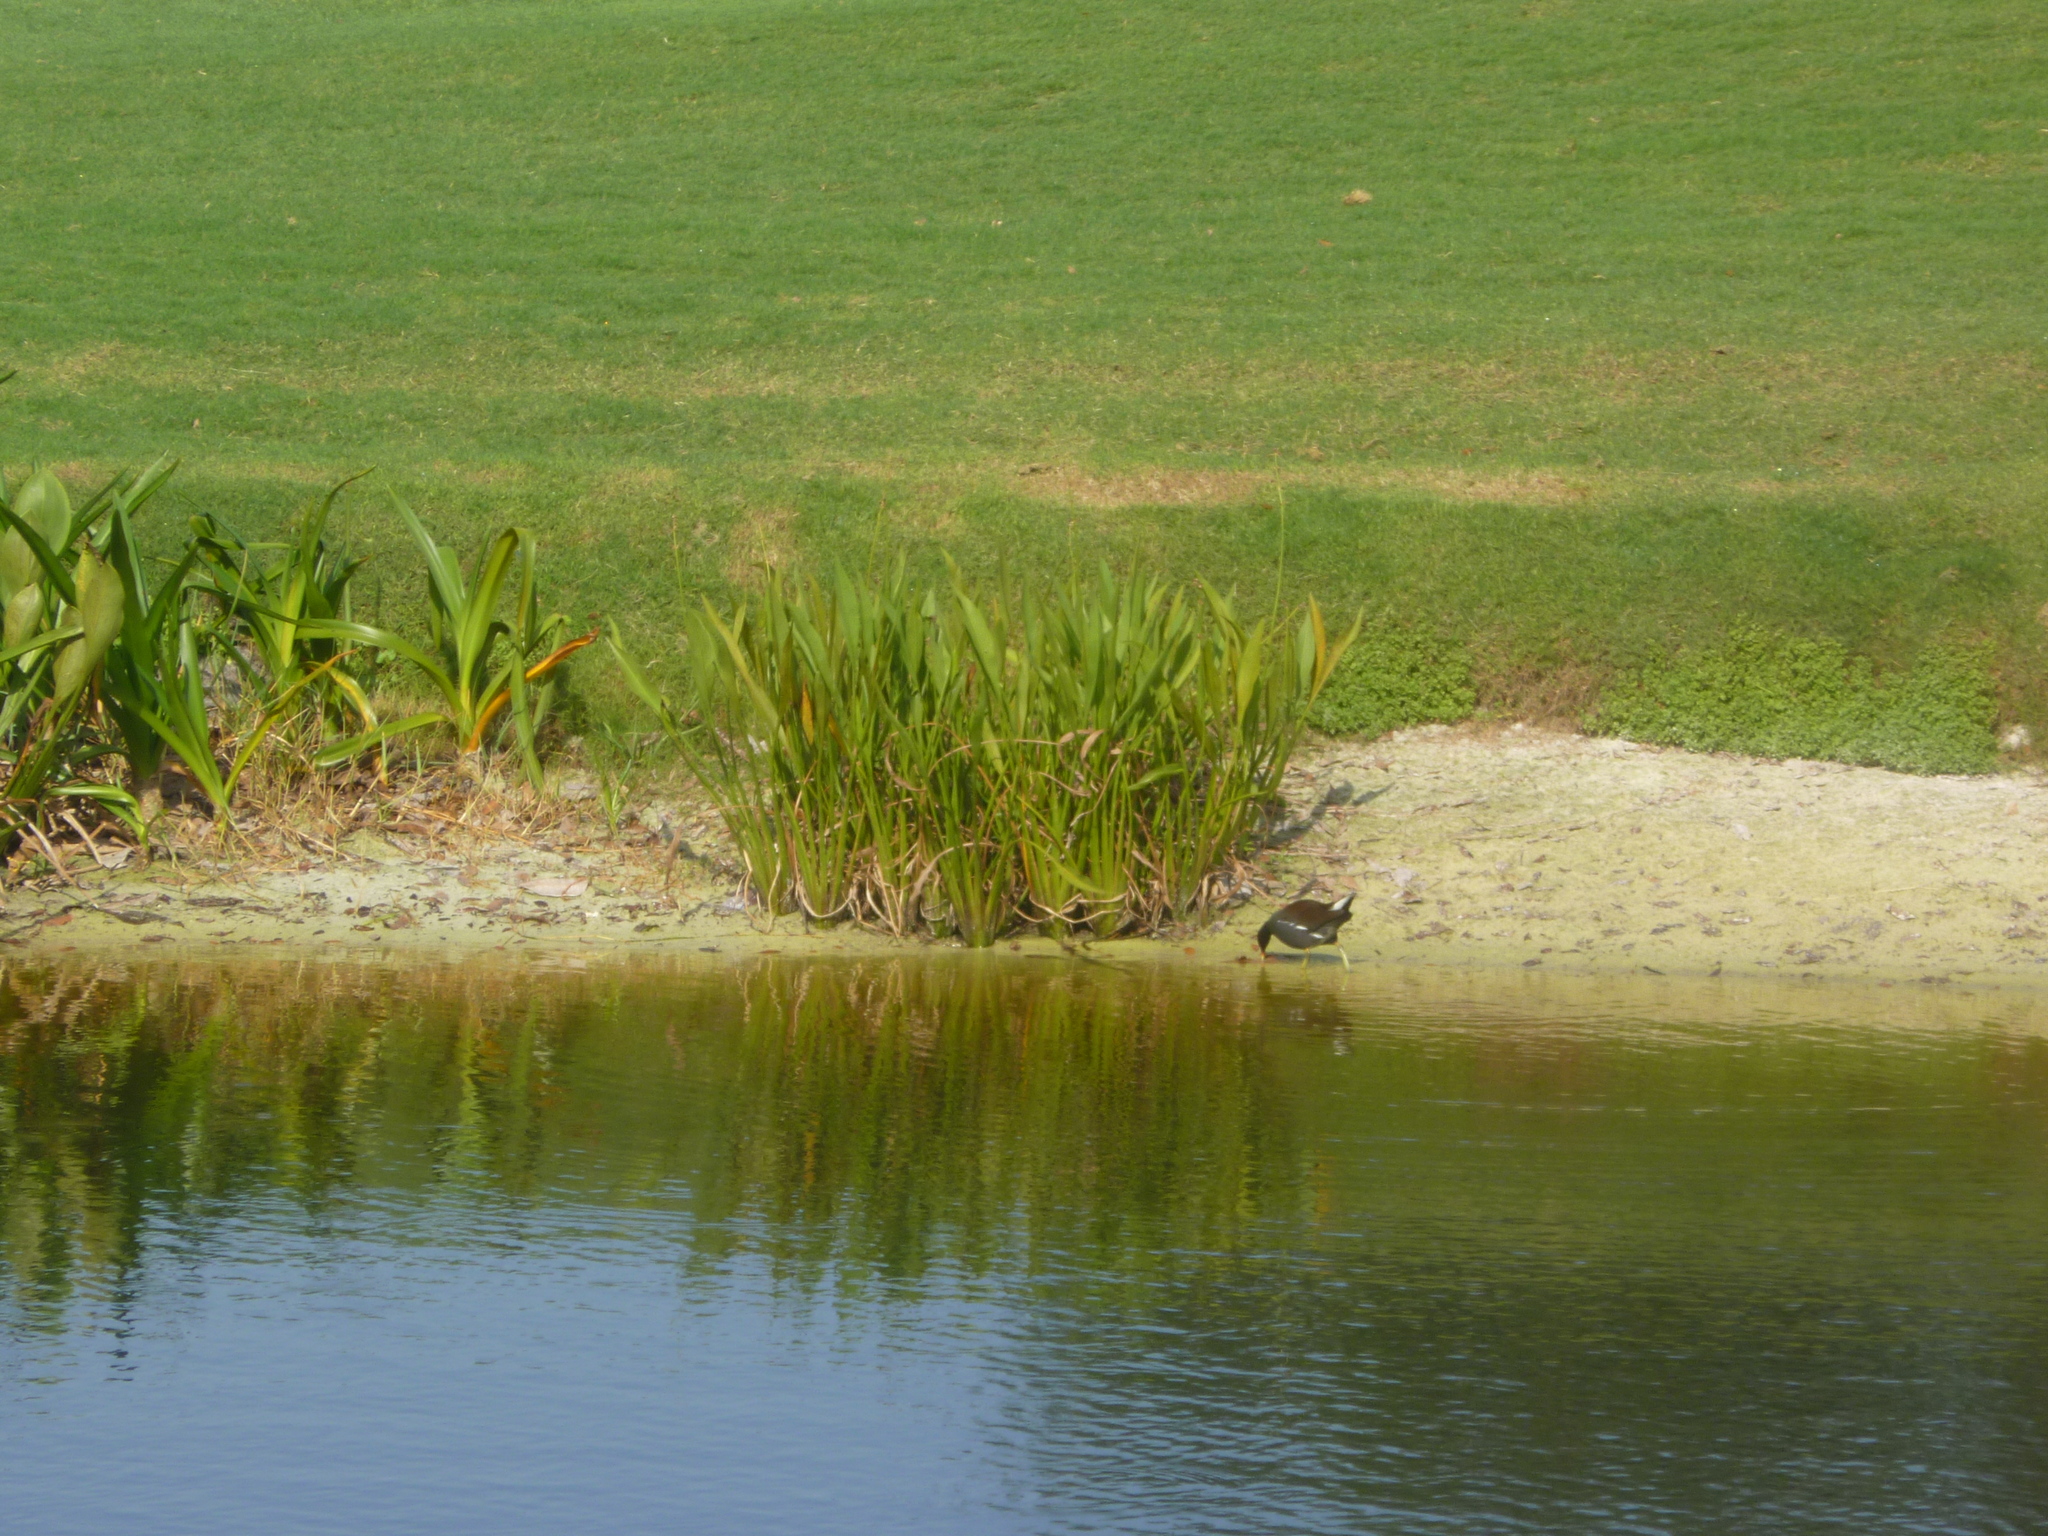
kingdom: Animalia
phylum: Chordata
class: Aves
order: Gruiformes
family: Rallidae
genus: Gallinula
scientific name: Gallinula chloropus
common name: Common moorhen
